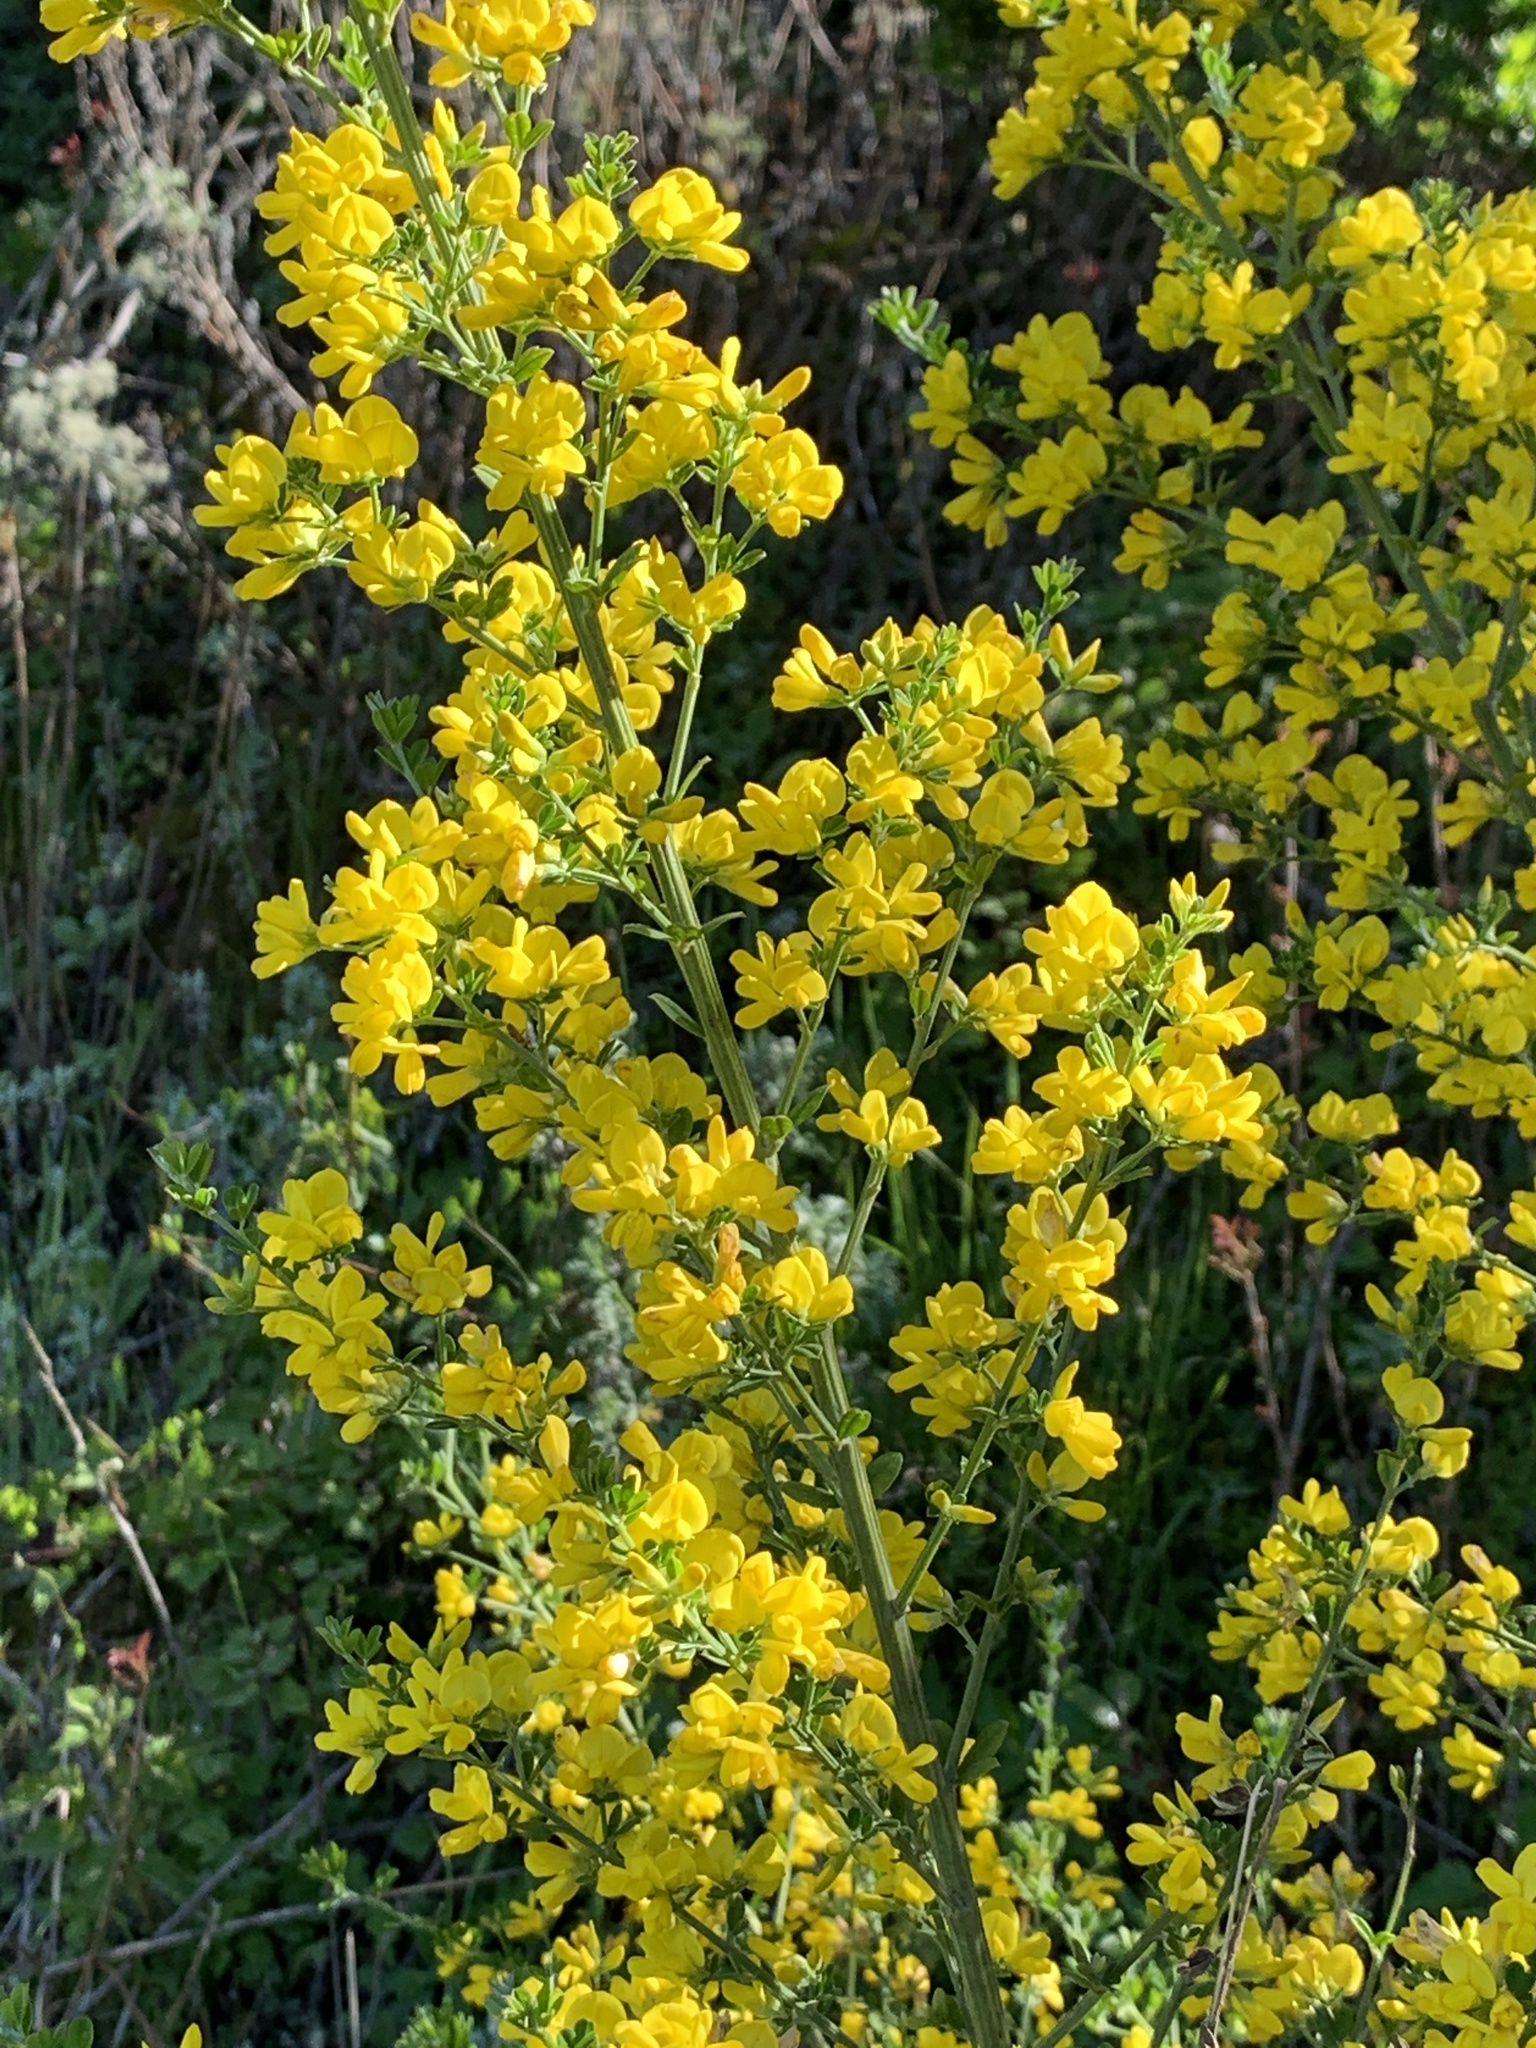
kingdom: Plantae
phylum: Tracheophyta
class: Magnoliopsida
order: Fabales
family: Fabaceae
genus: Genista
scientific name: Genista monspessulana
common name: Montpellier broom
